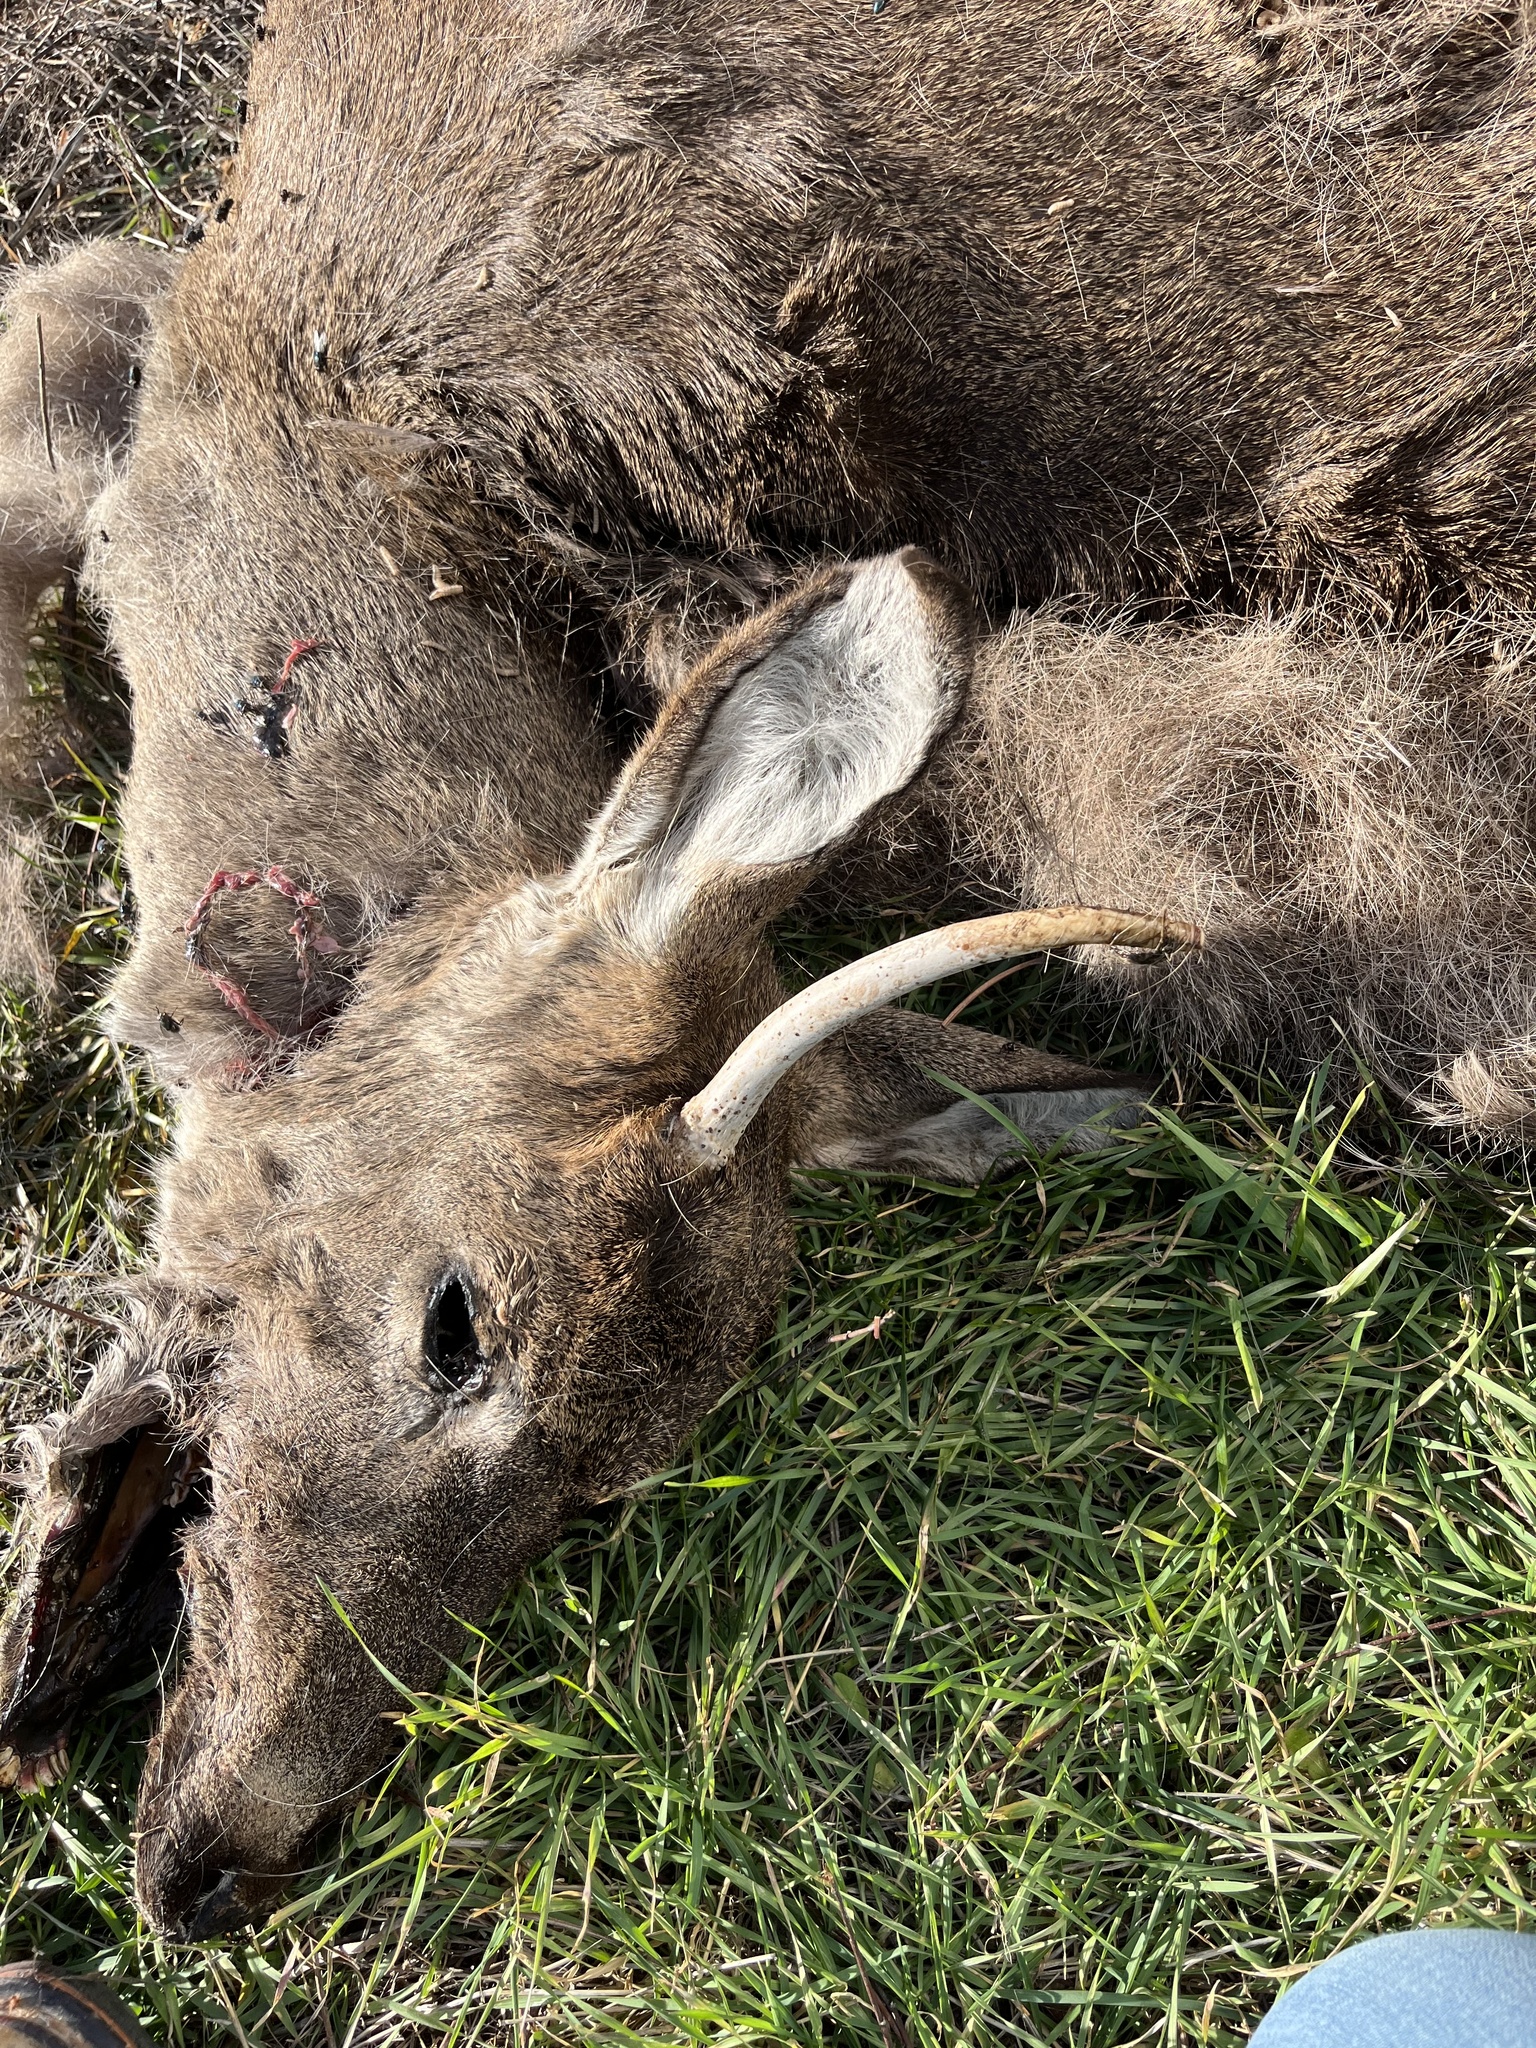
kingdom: Animalia
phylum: Chordata
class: Mammalia
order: Artiodactyla
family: Cervidae
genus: Odocoileus
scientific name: Odocoileus virginianus
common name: White-tailed deer
